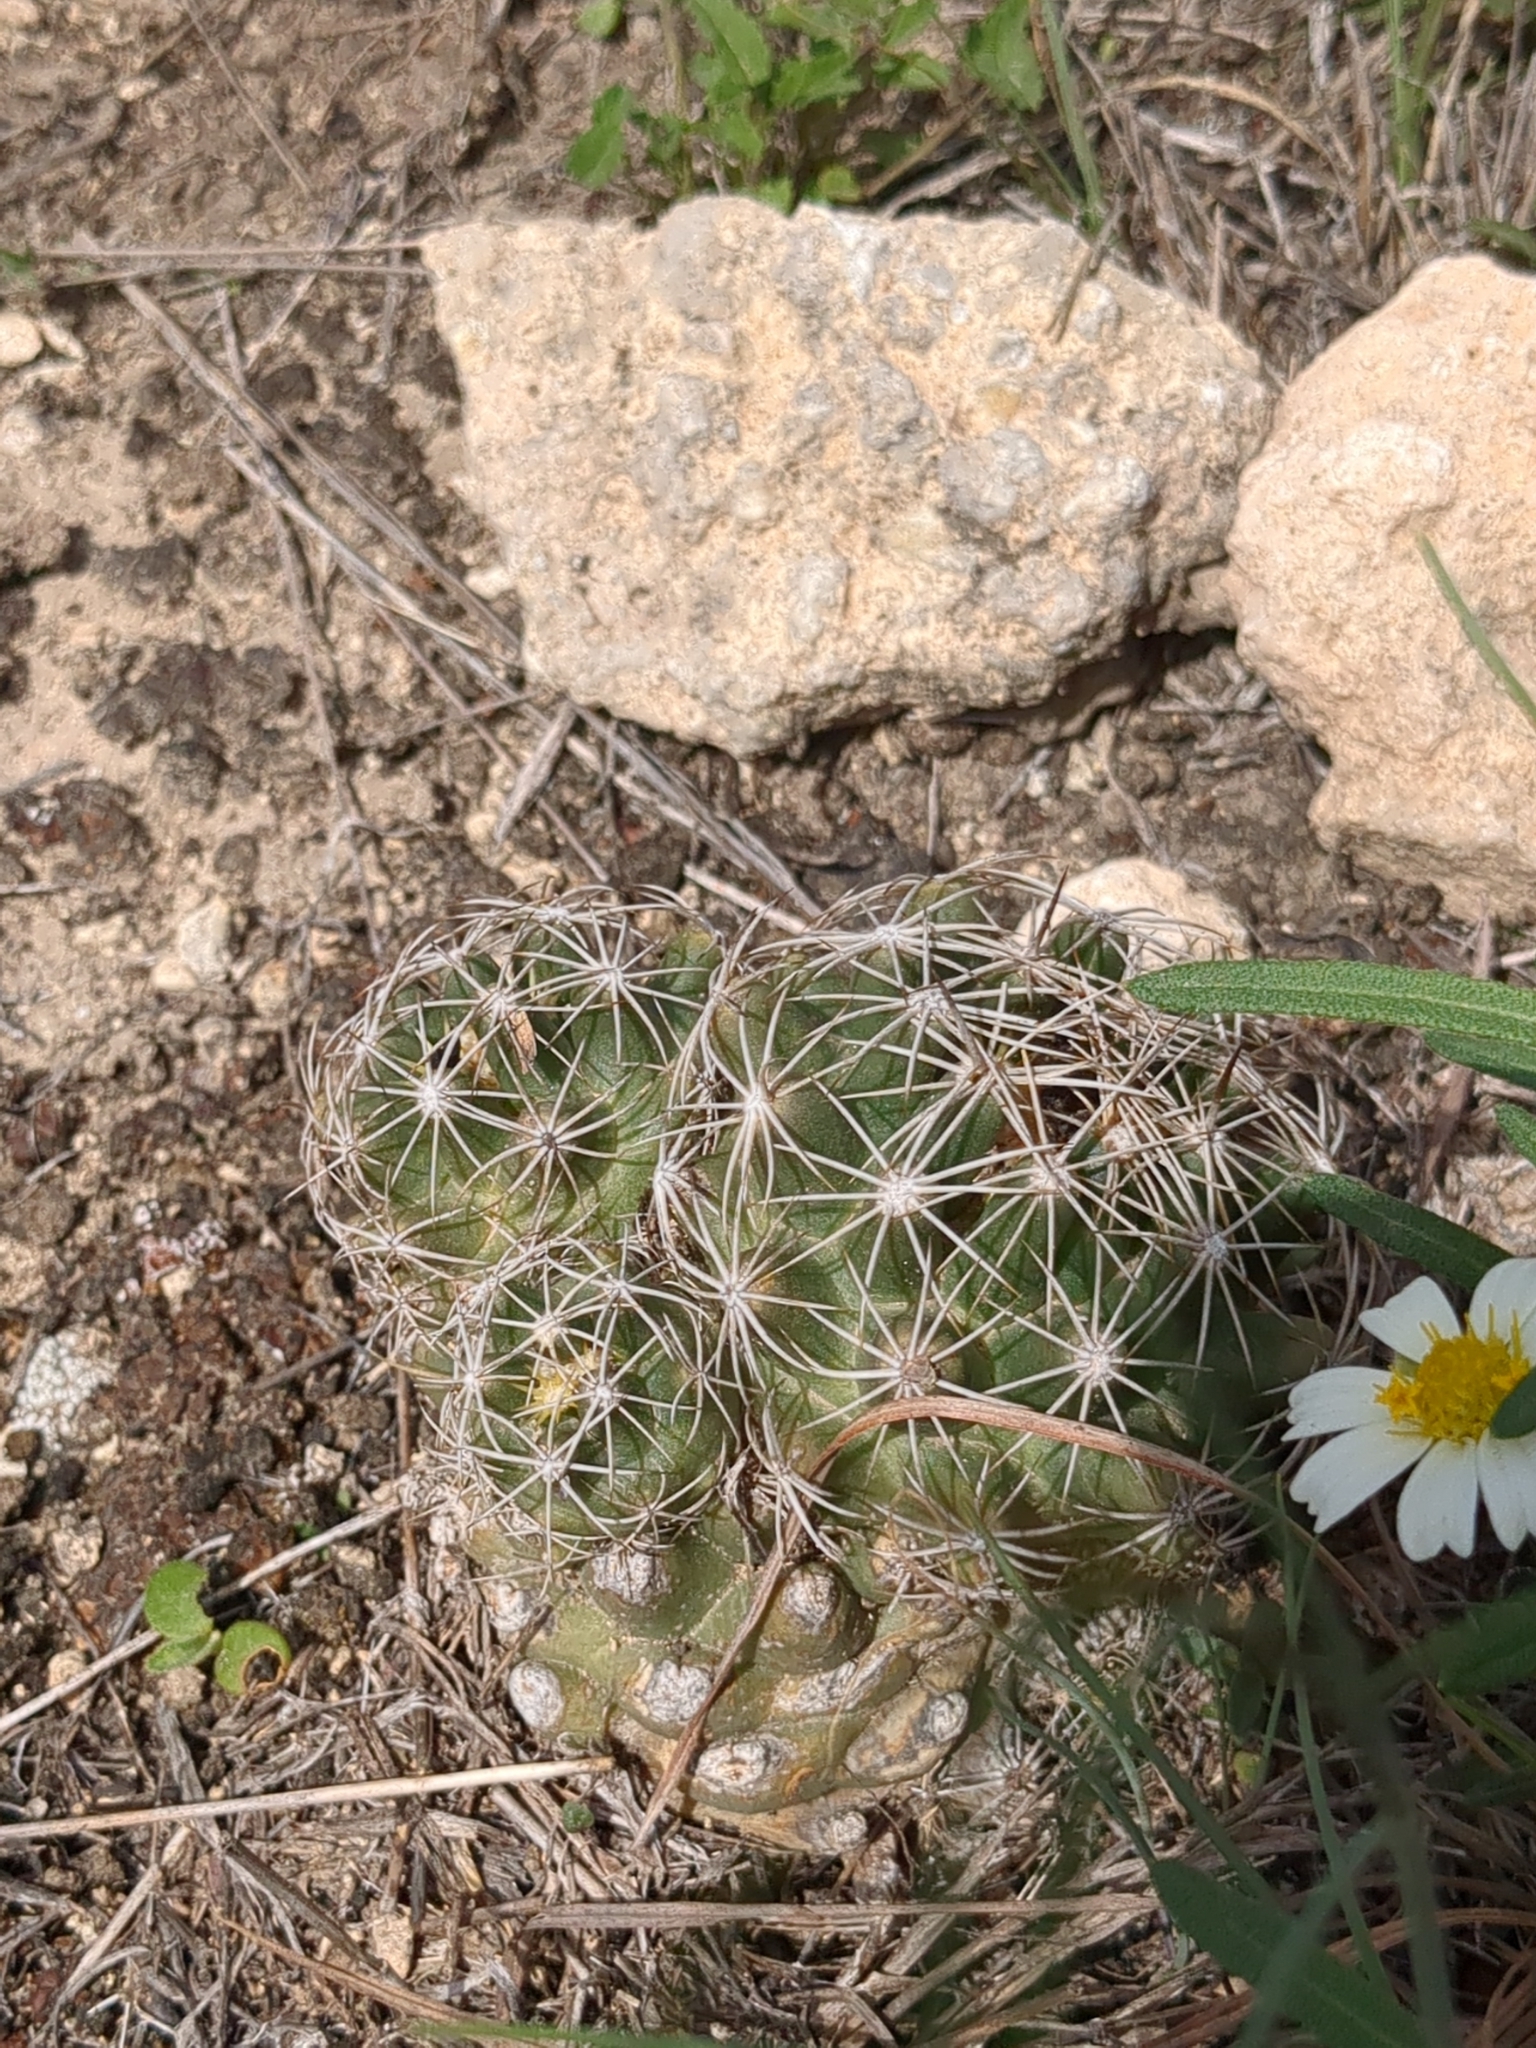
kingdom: Plantae
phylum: Tracheophyta
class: Magnoliopsida
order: Caryophyllales
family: Cactaceae
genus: Coryphantha
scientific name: Coryphantha sulcata
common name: Finger cactus
